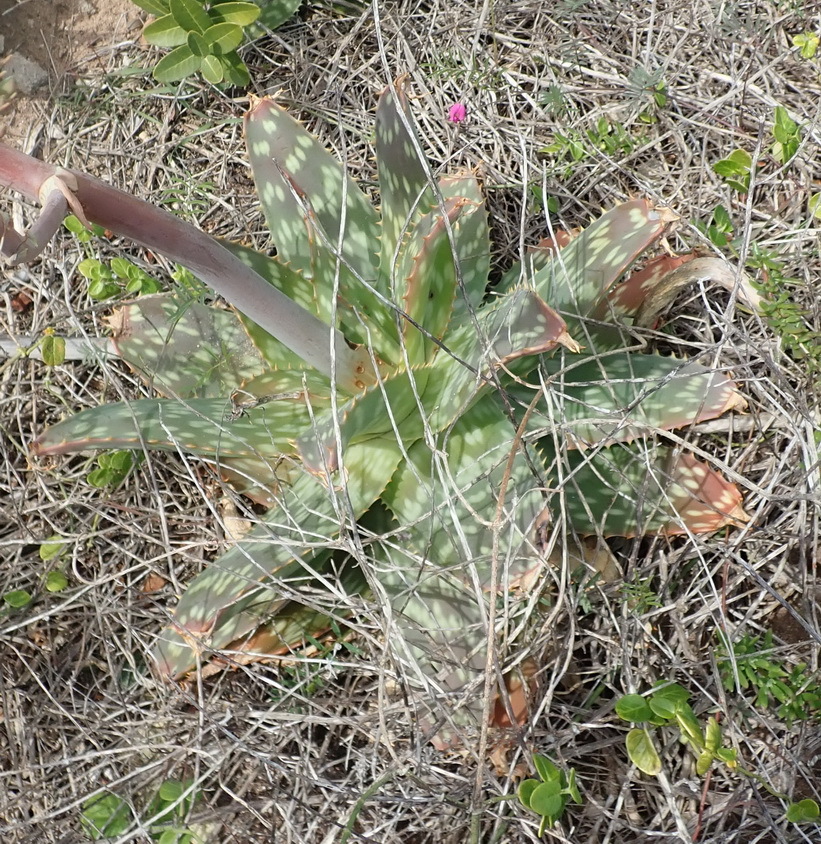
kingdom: Plantae
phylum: Tracheophyta
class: Liliopsida
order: Asparagales
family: Asphodelaceae
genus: Aloe
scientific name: Aloe maculata
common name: Broadleaf aloe
